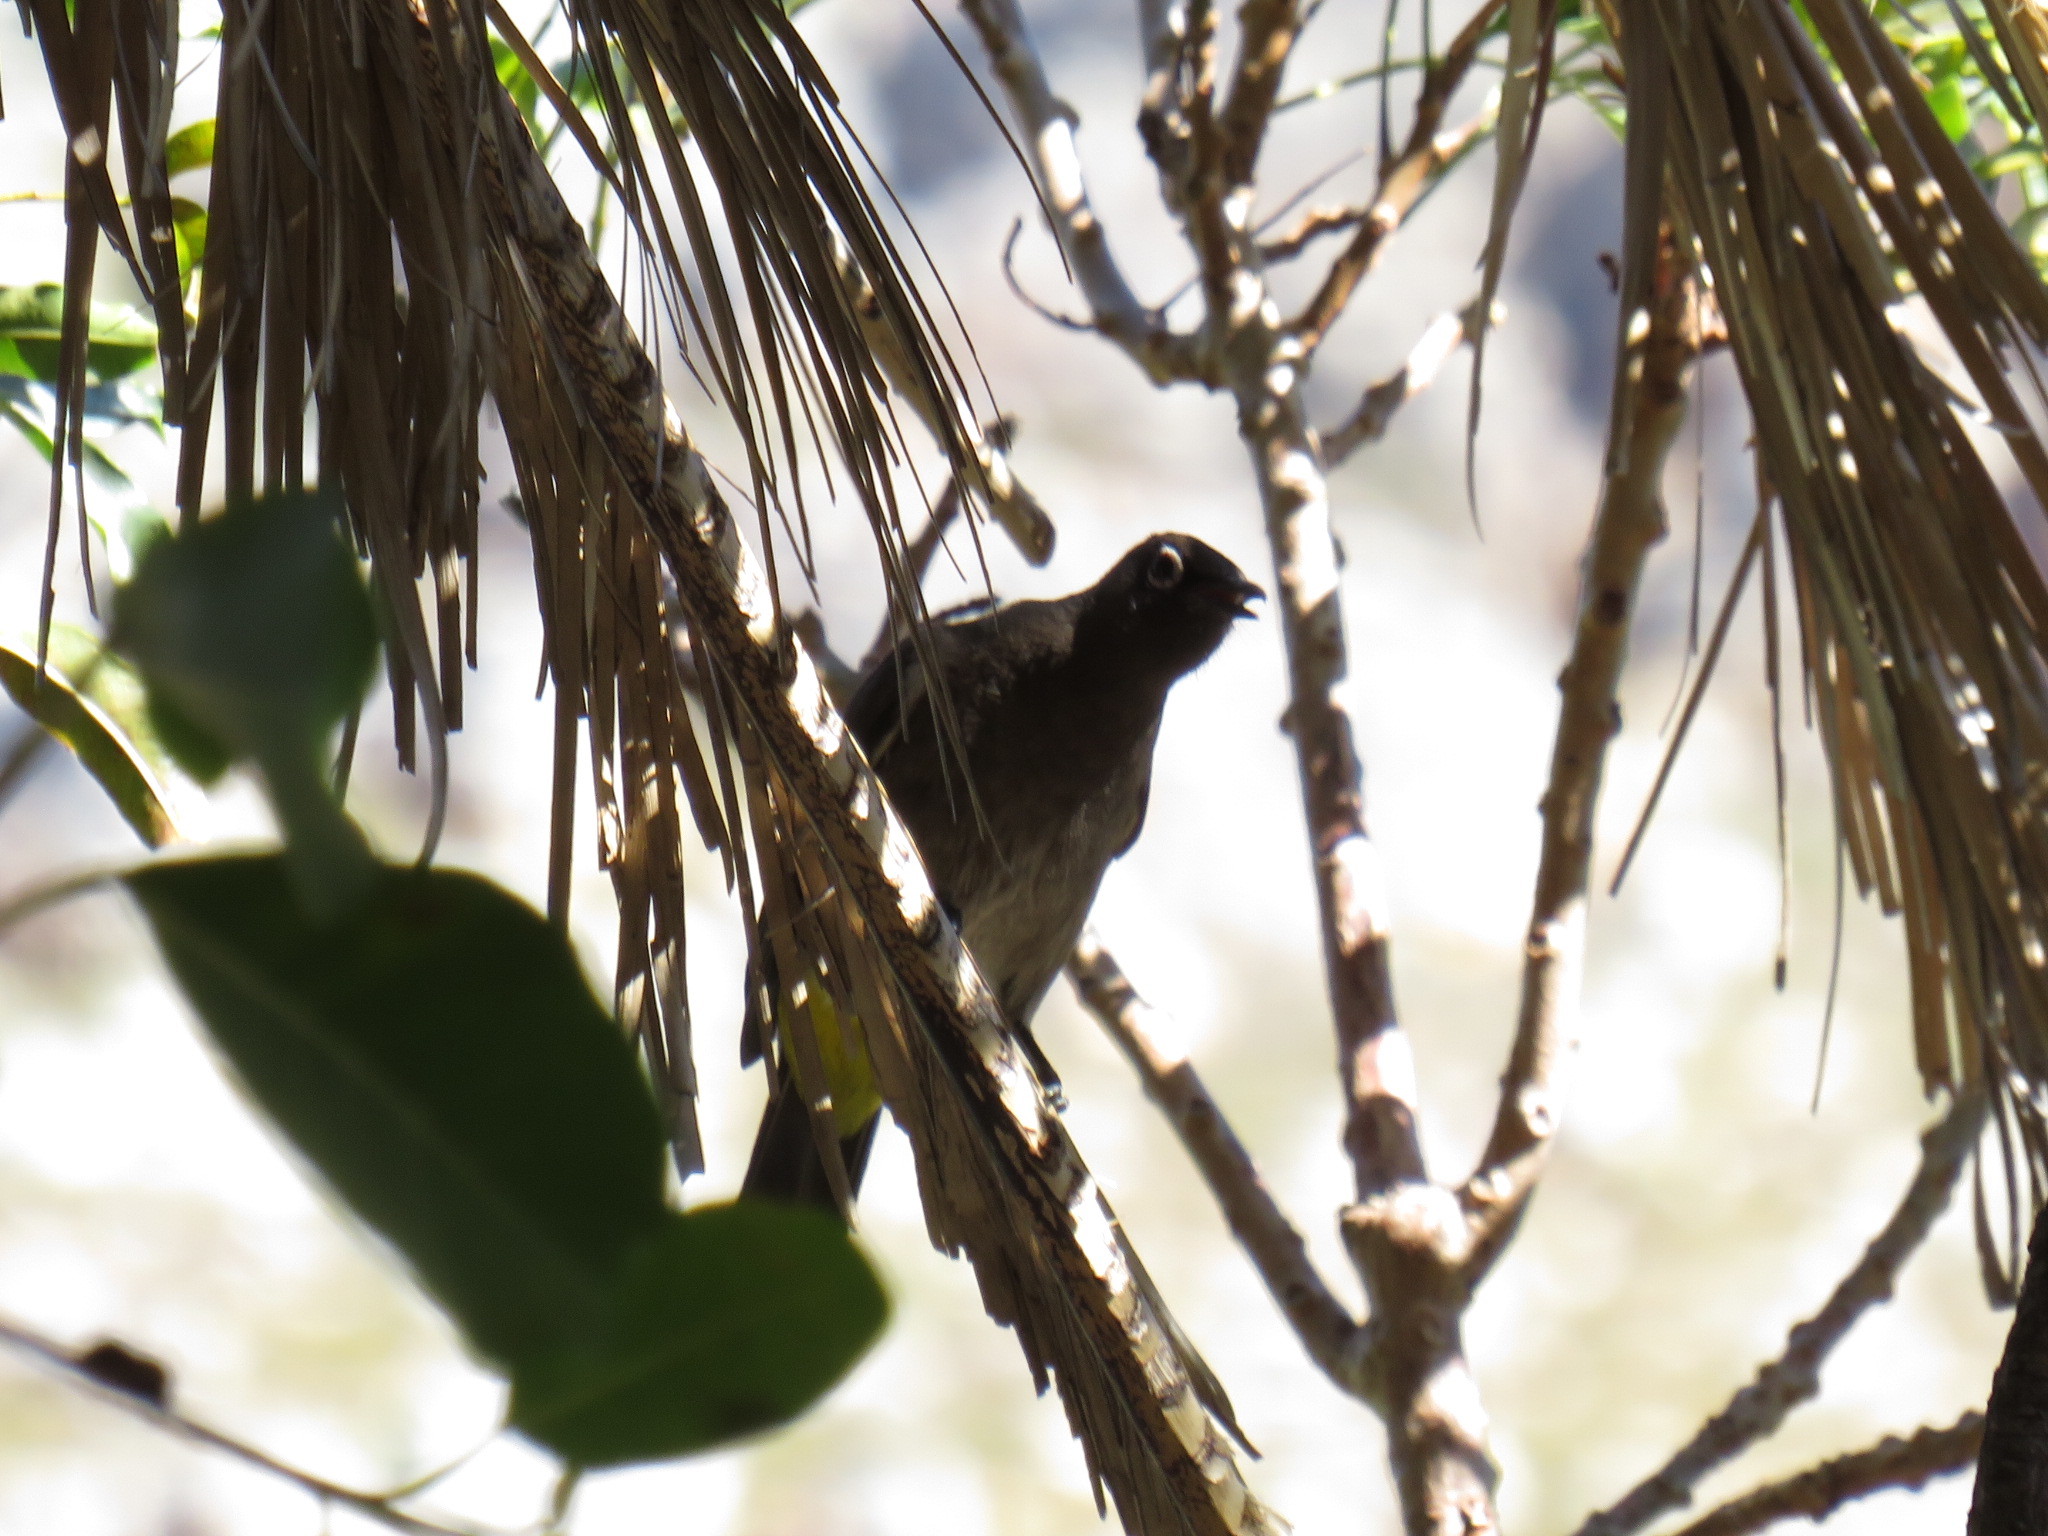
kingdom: Animalia
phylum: Chordata
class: Aves
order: Passeriformes
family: Pycnonotidae
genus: Pycnonotus
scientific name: Pycnonotus capensis
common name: Cape bulbul
